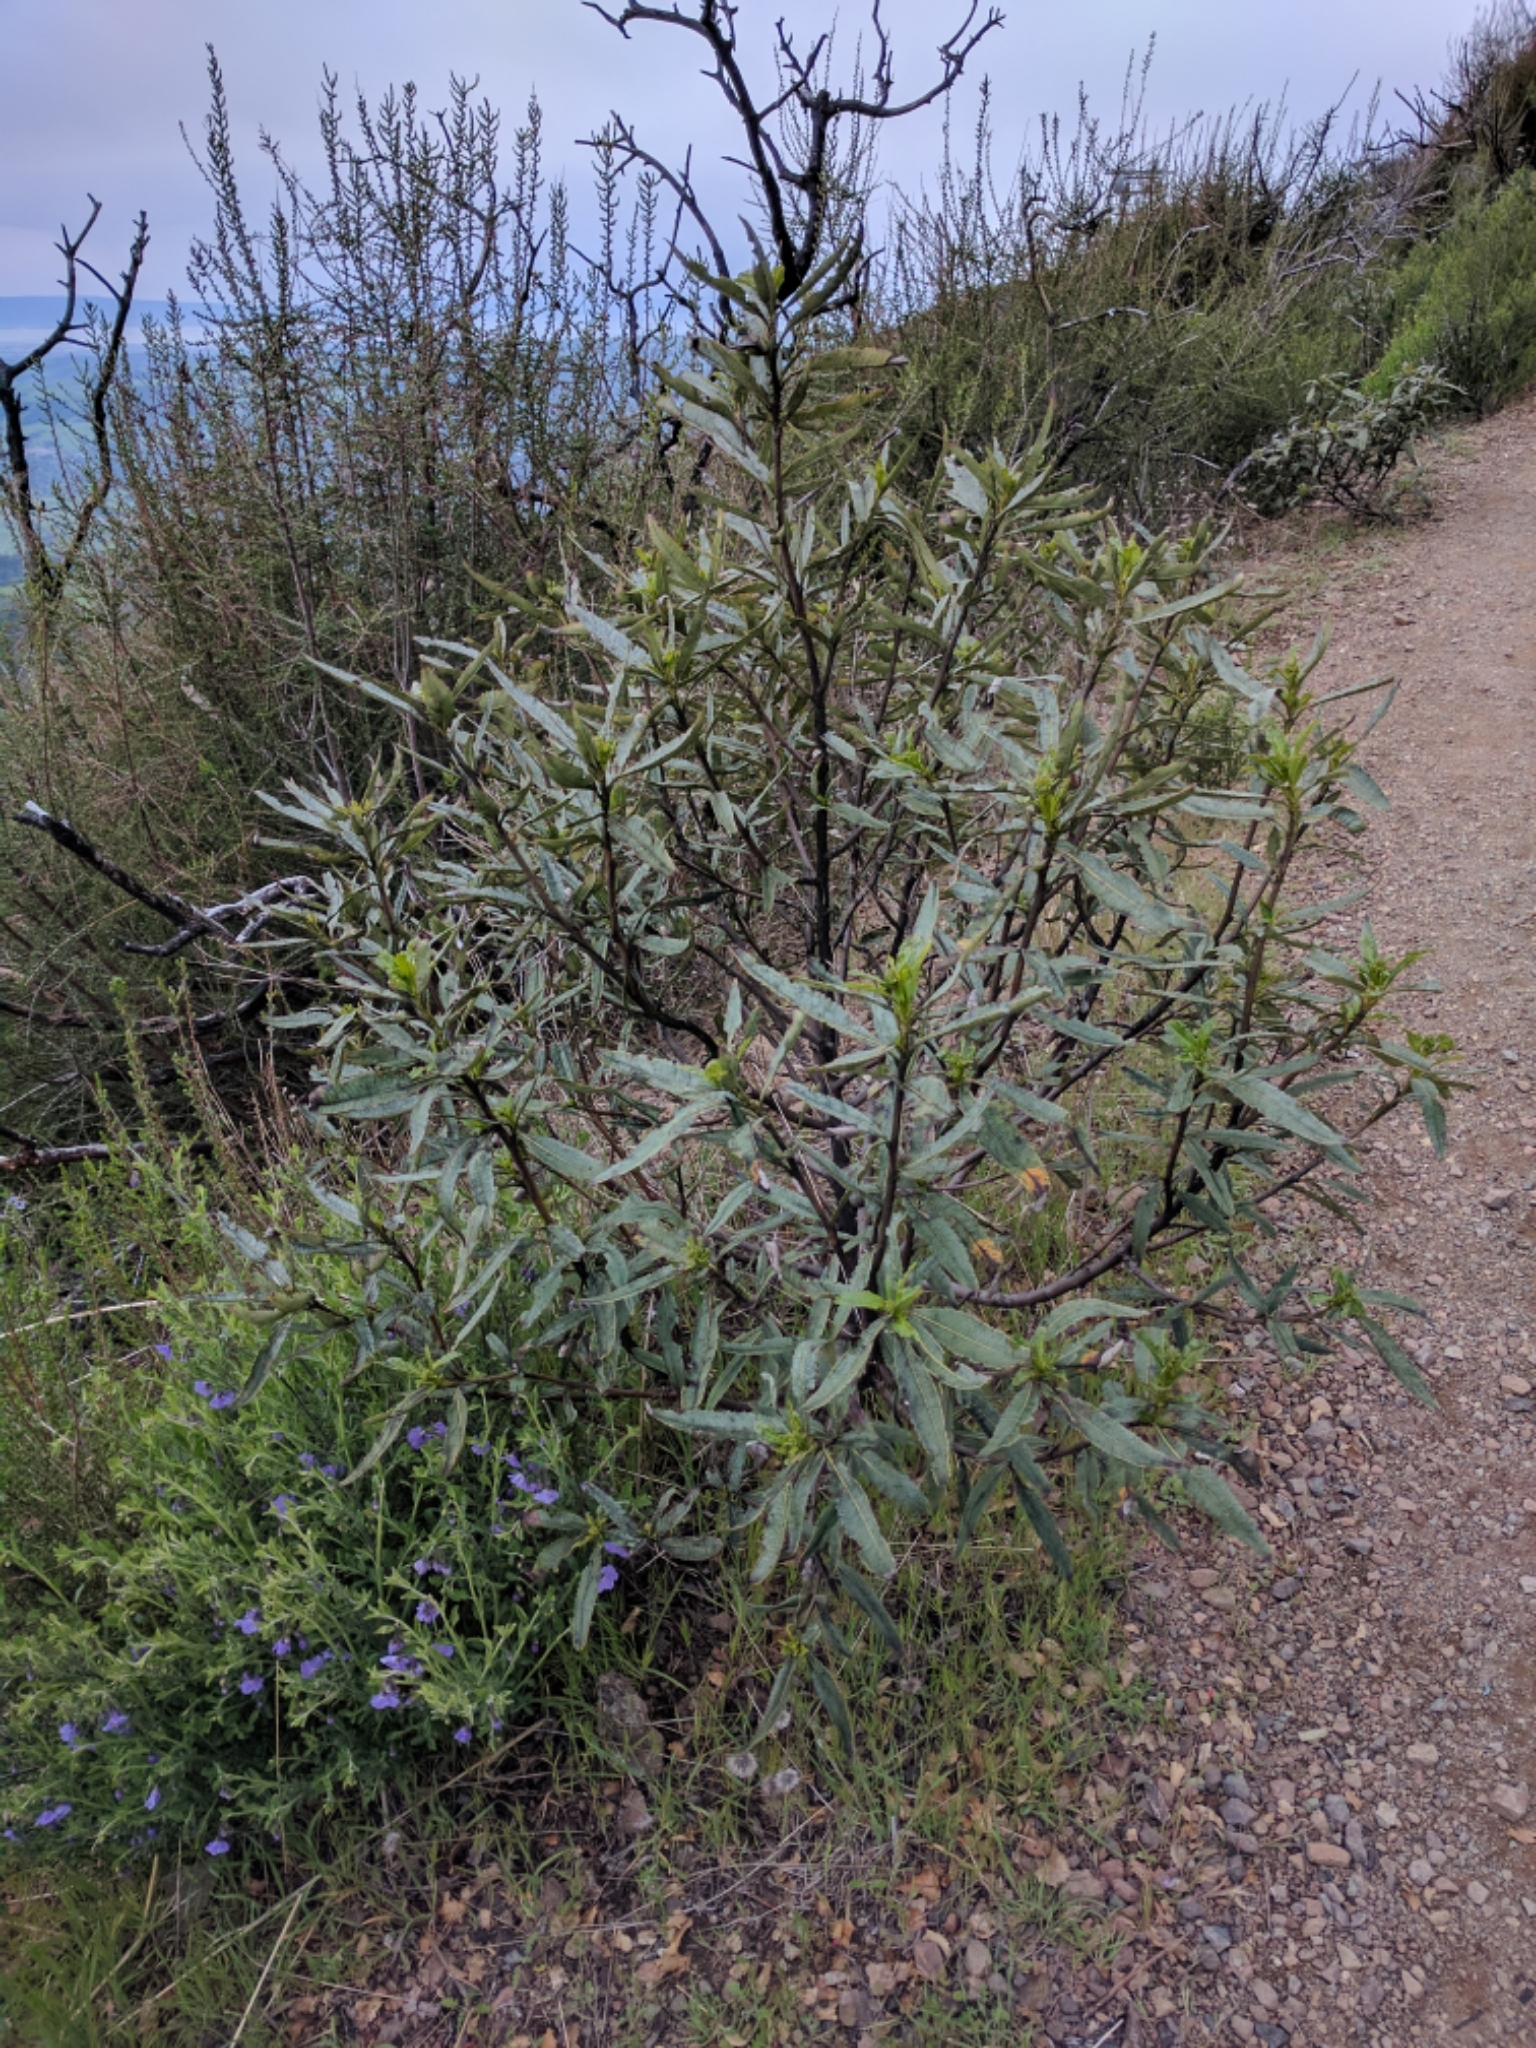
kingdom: Plantae
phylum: Tracheophyta
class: Magnoliopsida
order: Boraginales
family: Namaceae
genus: Eriodictyon
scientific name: Eriodictyon californicum
